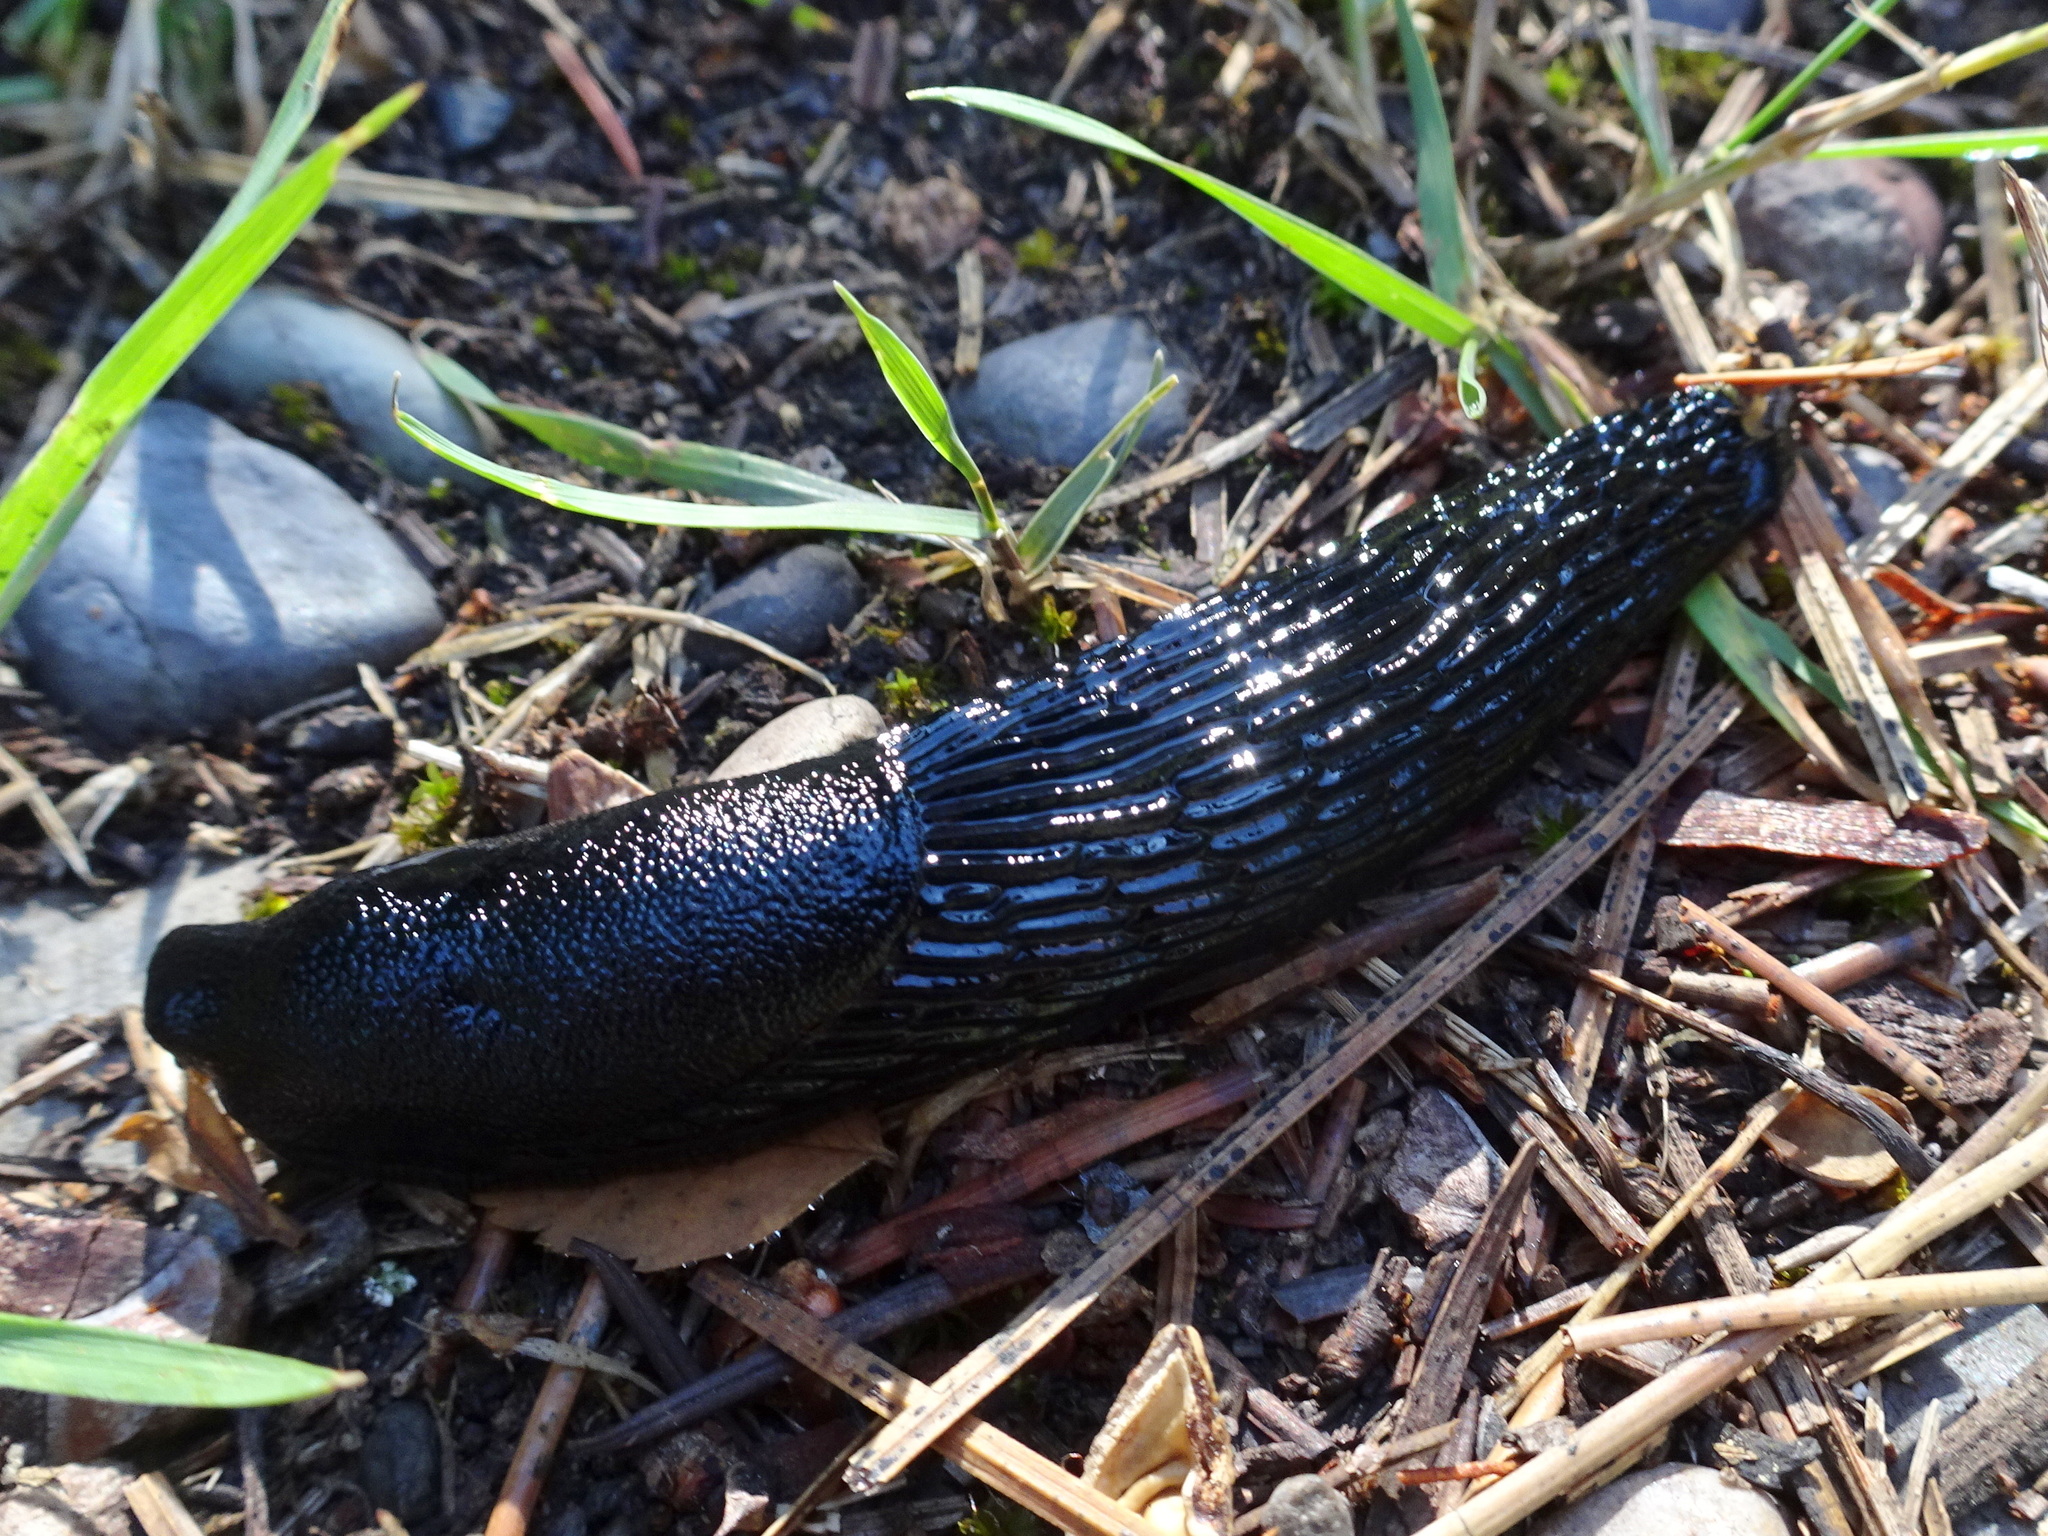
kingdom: Animalia
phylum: Mollusca
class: Gastropoda
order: Stylommatophora
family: Arionidae
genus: Arion
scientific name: Arion
